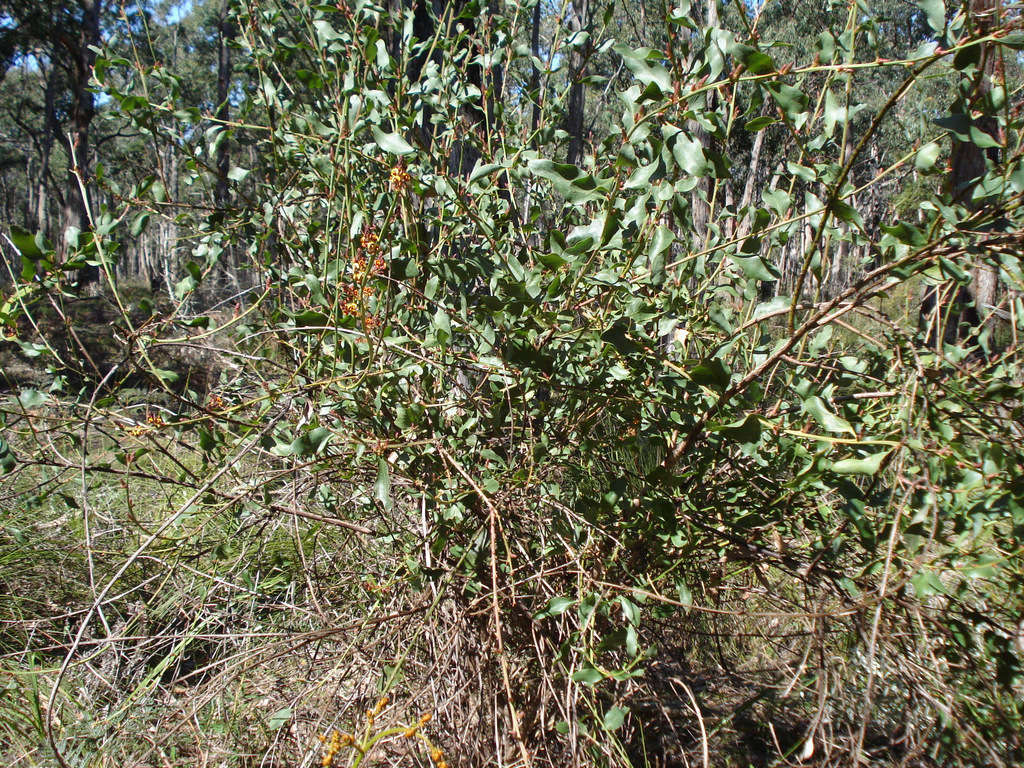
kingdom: Plantae
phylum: Tracheophyta
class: Magnoliopsida
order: Fabales
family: Fabaceae
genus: Daviesia
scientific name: Daviesia latifolia
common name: Hop bitter-pea
